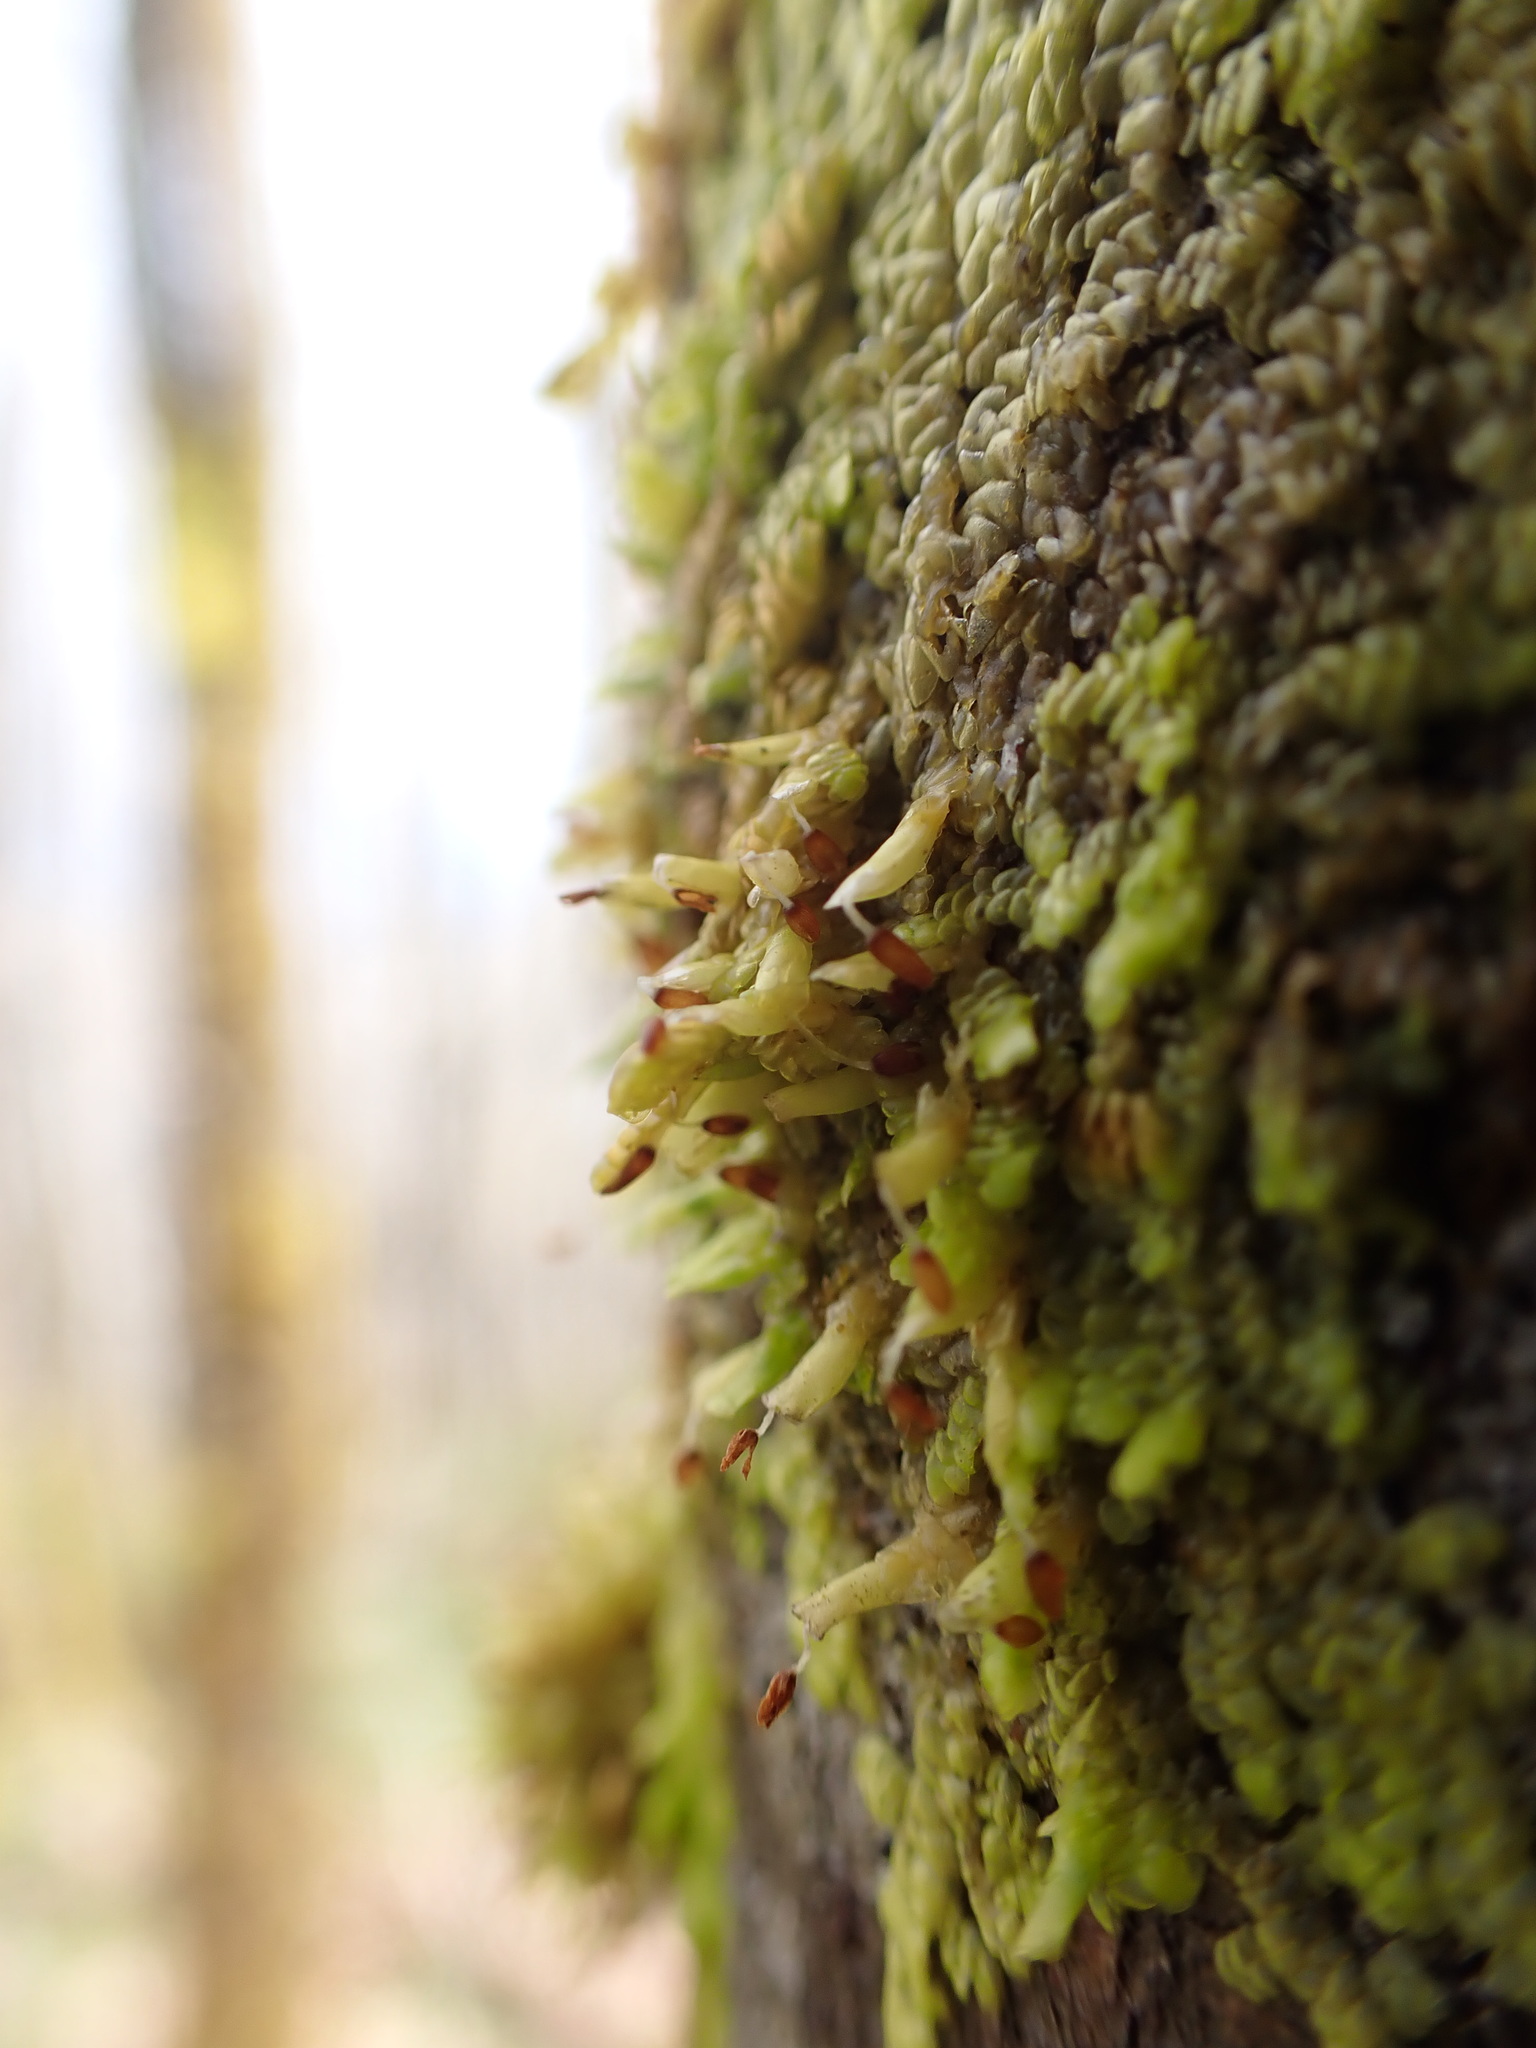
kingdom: Plantae
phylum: Marchantiophyta
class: Jungermanniopsida
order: Porellales
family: Radulaceae
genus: Radula
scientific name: Radula complanata
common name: Flat-leaved scalewort
